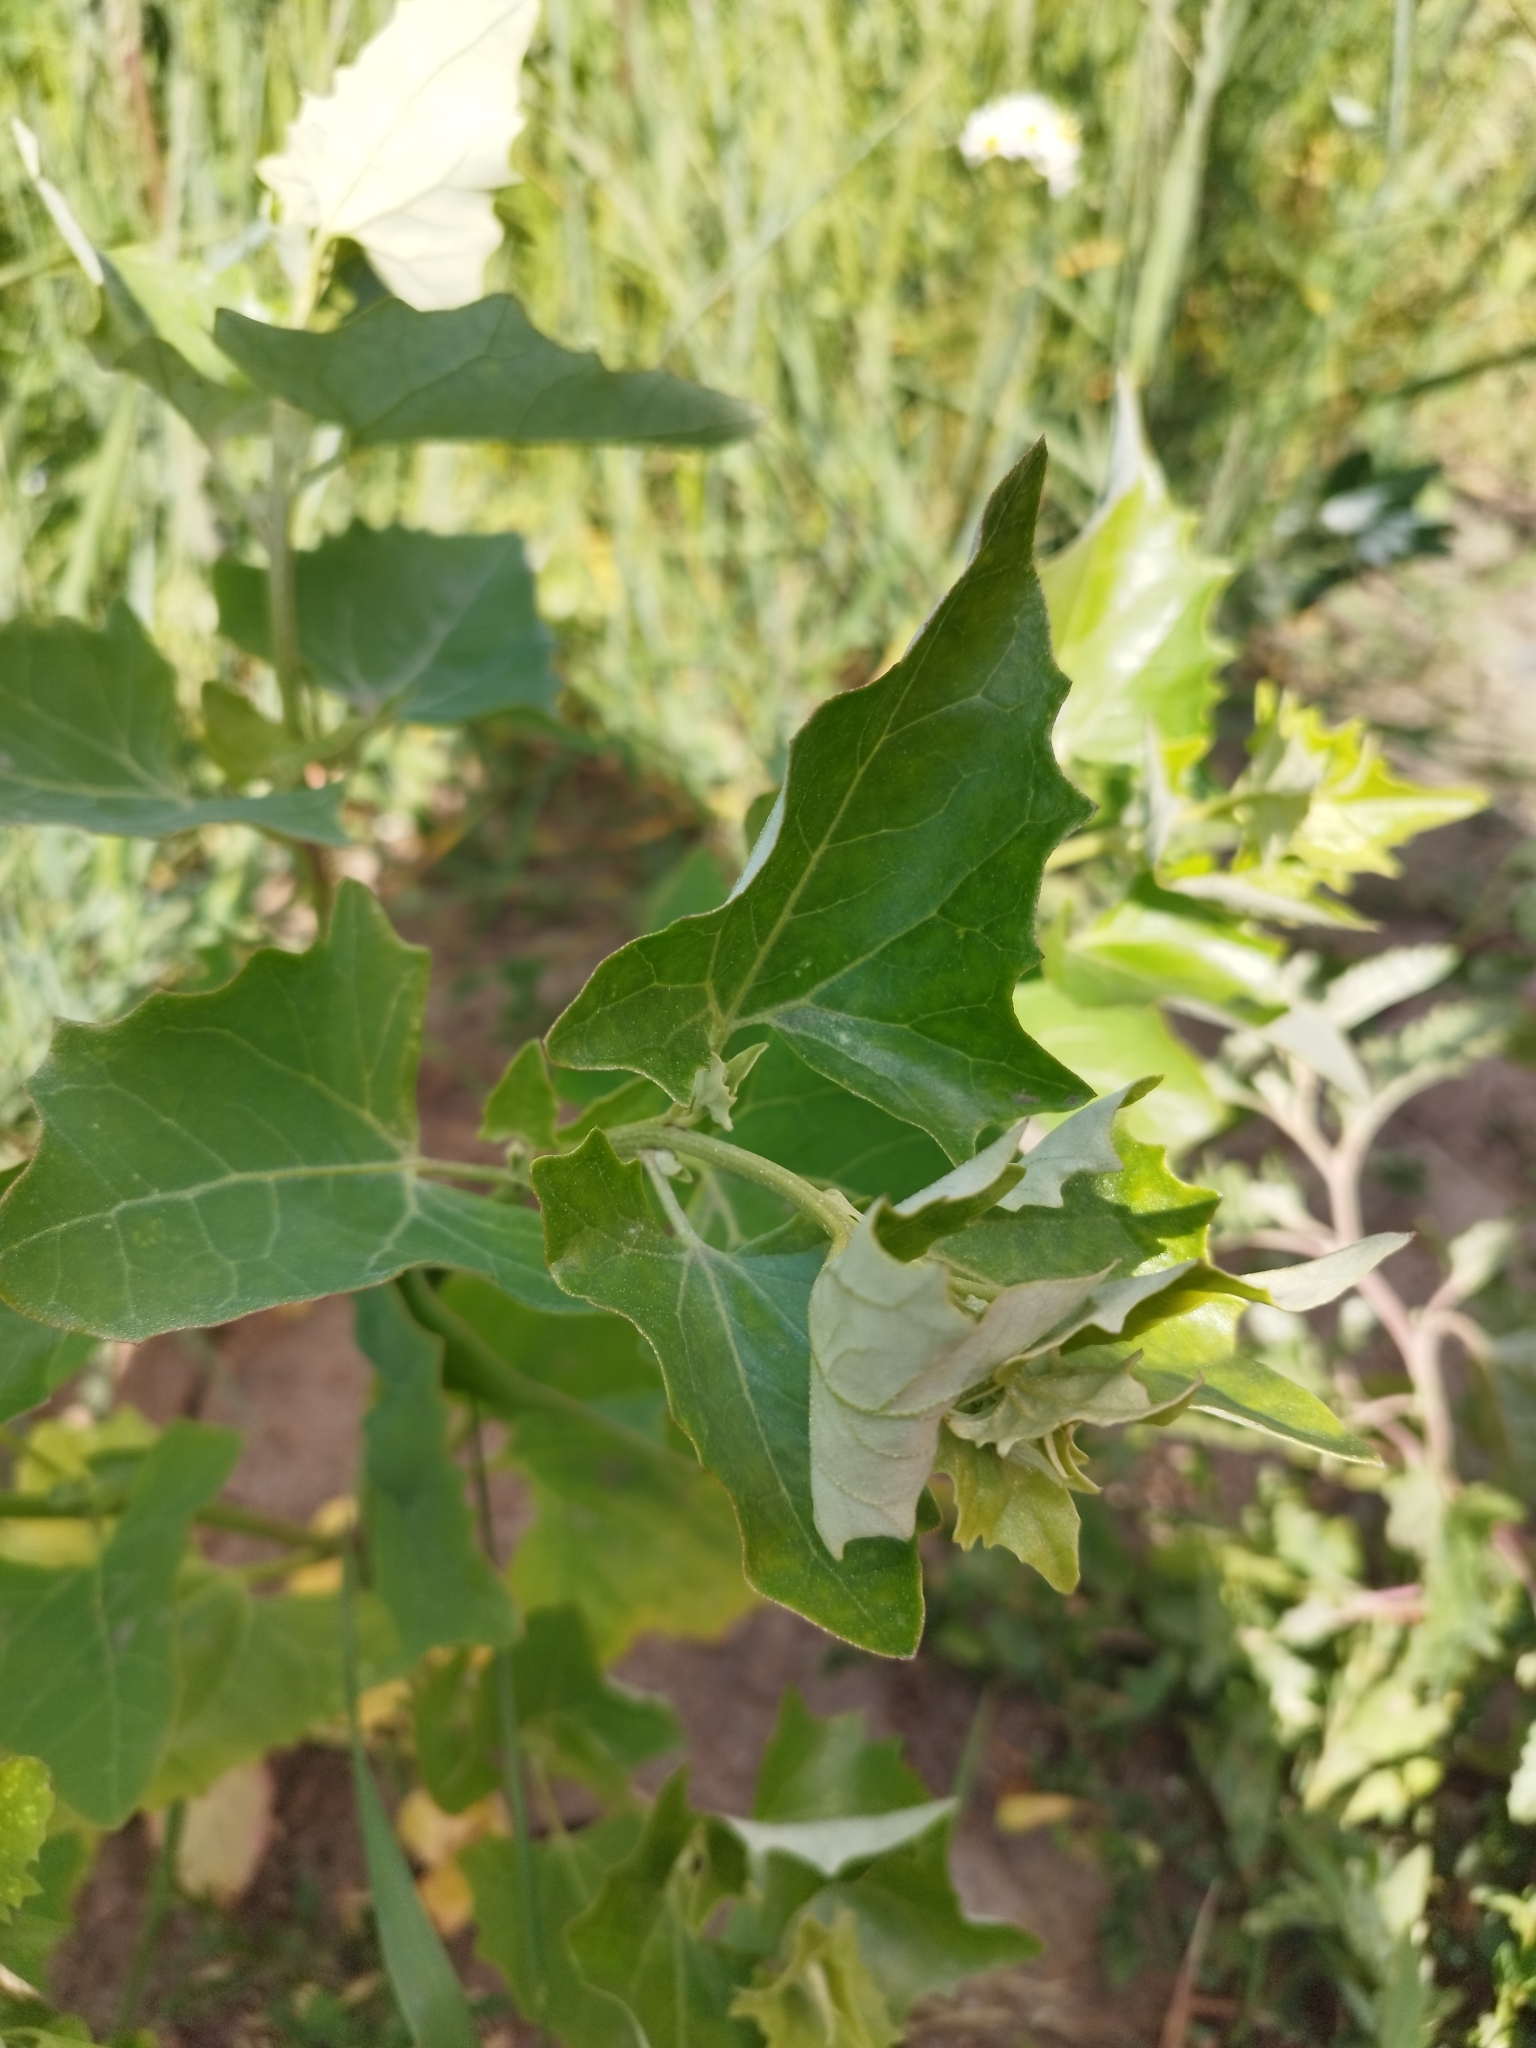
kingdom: Plantae
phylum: Tracheophyta
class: Magnoliopsida
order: Caryophyllales
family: Amaranthaceae
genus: Atriplex
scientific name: Atriplex sagittata
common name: Purple orache
